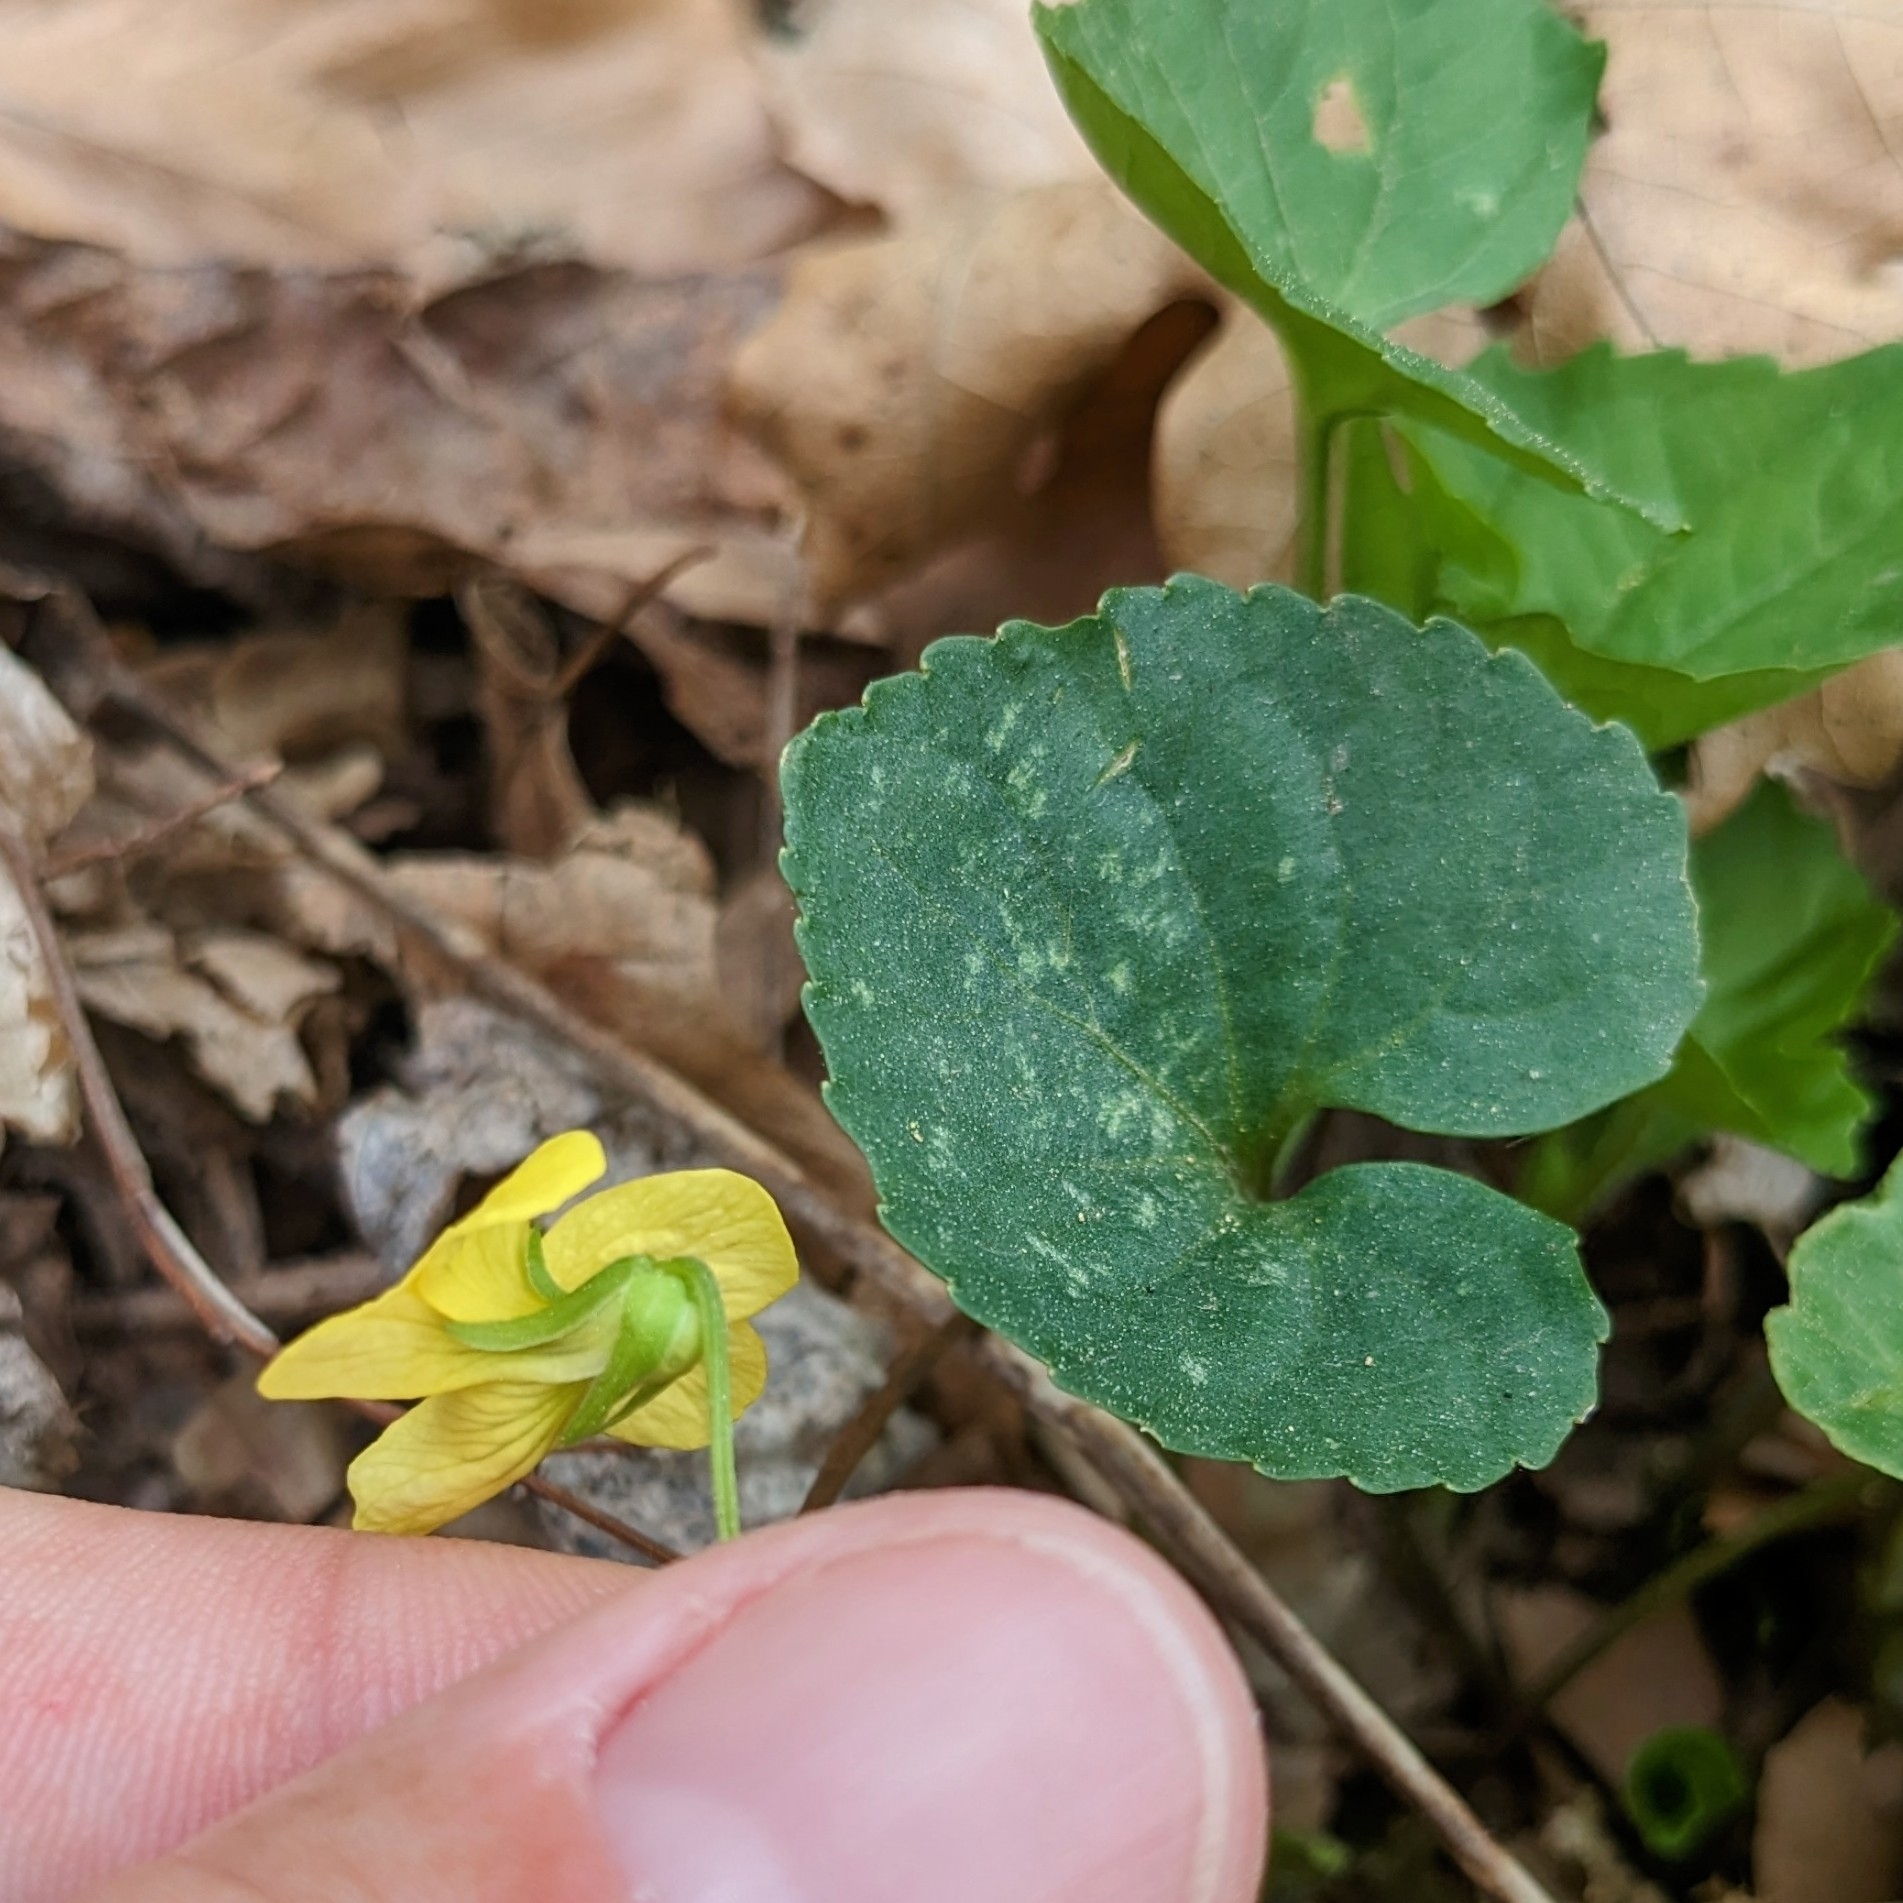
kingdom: Plantae
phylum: Tracheophyta
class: Magnoliopsida
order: Malpighiales
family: Violaceae
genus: Viola
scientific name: Viola eriocarpa
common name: Smooth yellow violet
